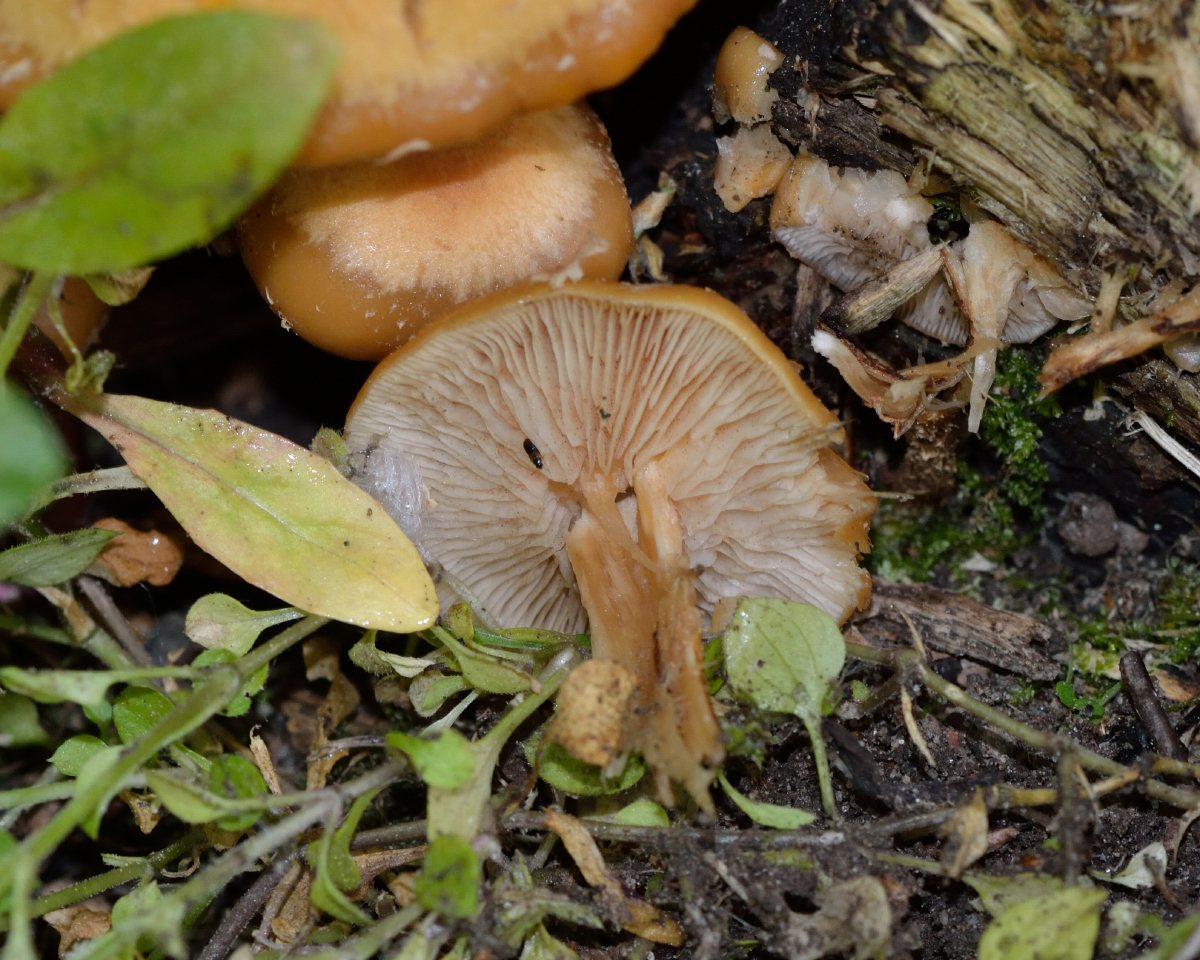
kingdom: Fungi
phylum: Basidiomycota
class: Agaricomycetes
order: Agaricales
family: Strophariaceae
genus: Kuehneromyces
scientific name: Kuehneromyces mutabilis
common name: Sheathed woodtuft
